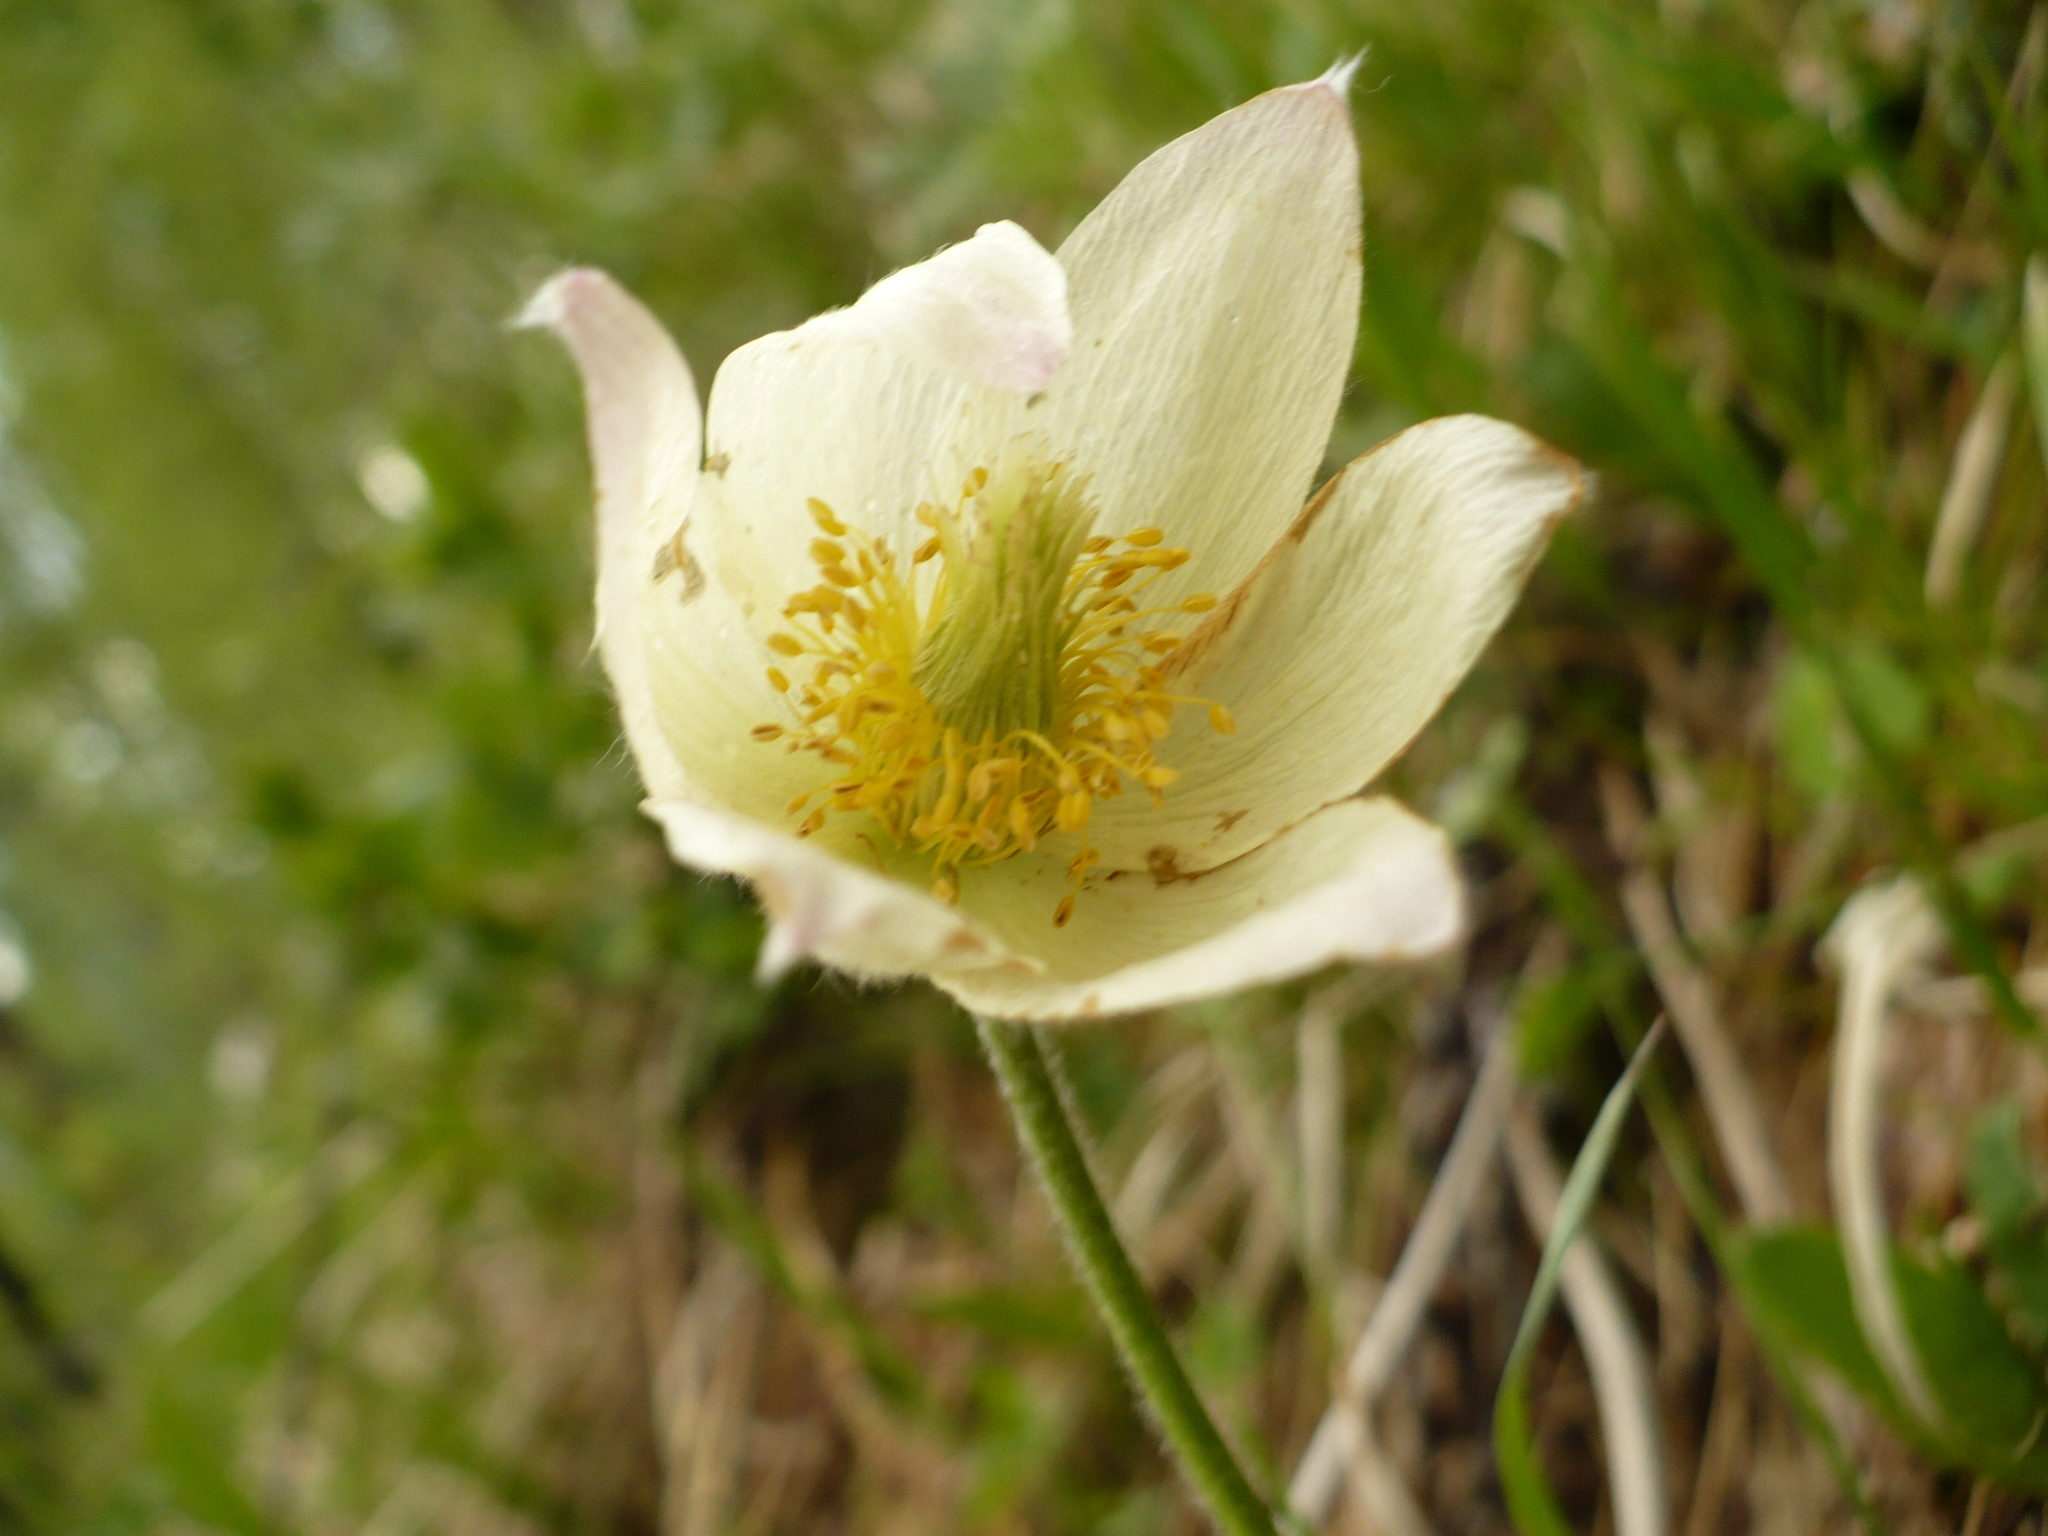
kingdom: Plantae
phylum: Tracheophyta
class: Magnoliopsida
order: Ranunculales
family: Ranunculaceae
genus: Pulsatilla
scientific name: Pulsatilla patens
